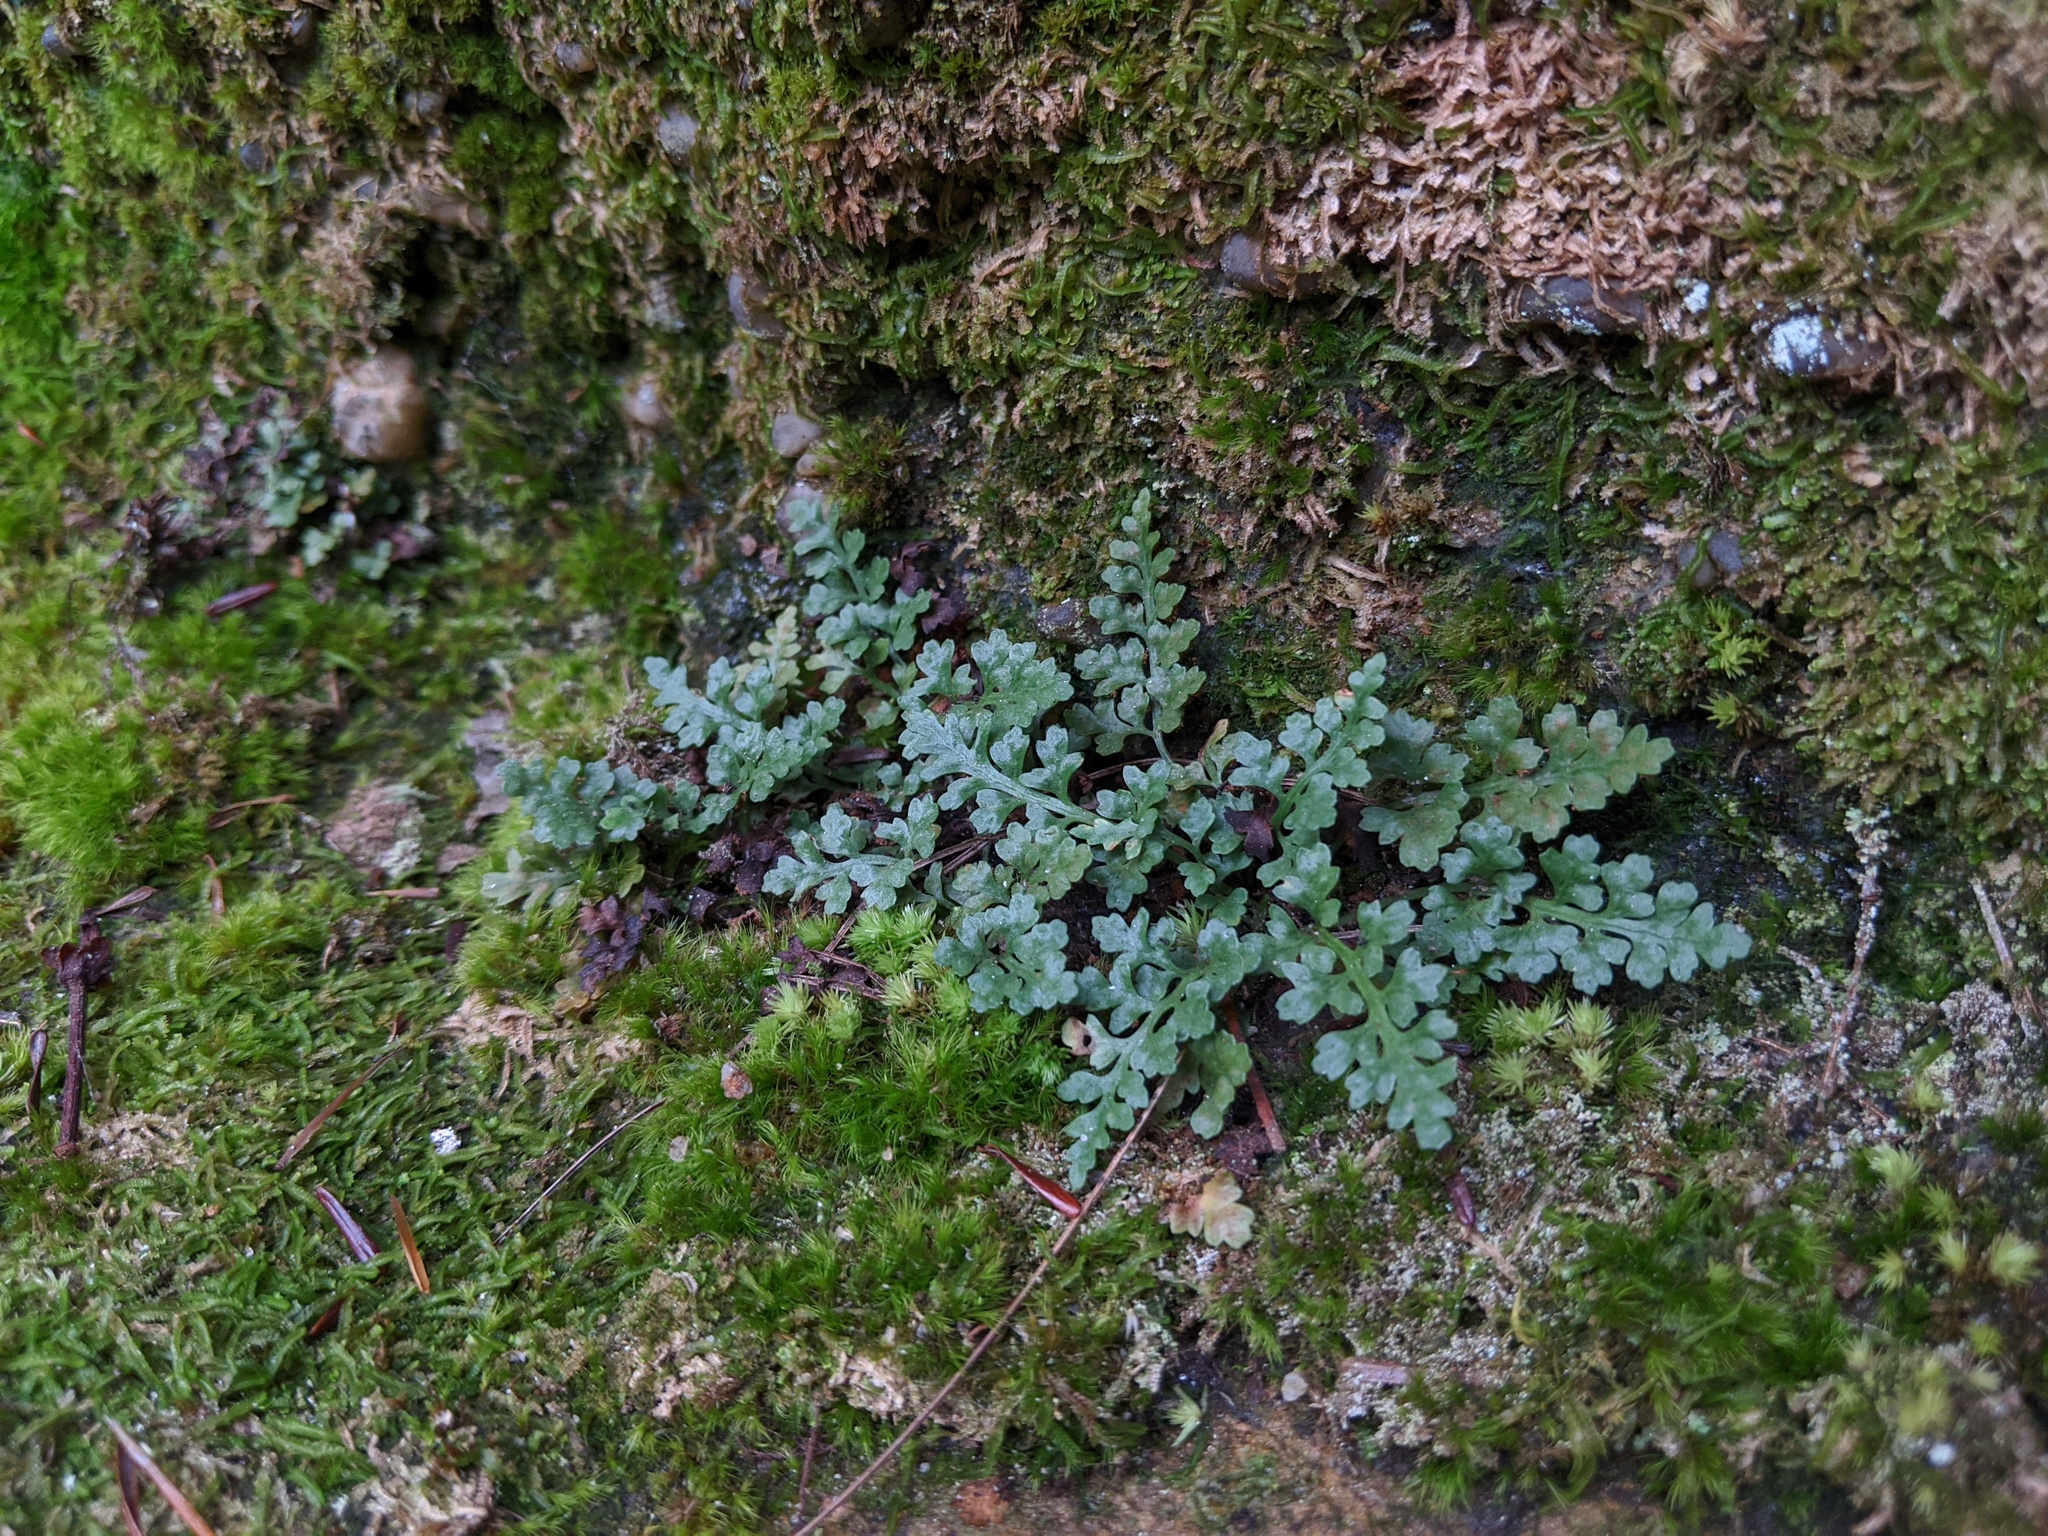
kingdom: Plantae
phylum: Tracheophyta
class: Polypodiopsida
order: Polypodiales
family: Aspleniaceae
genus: Asplenium
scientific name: Asplenium montanum
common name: Mountain spleenwort
